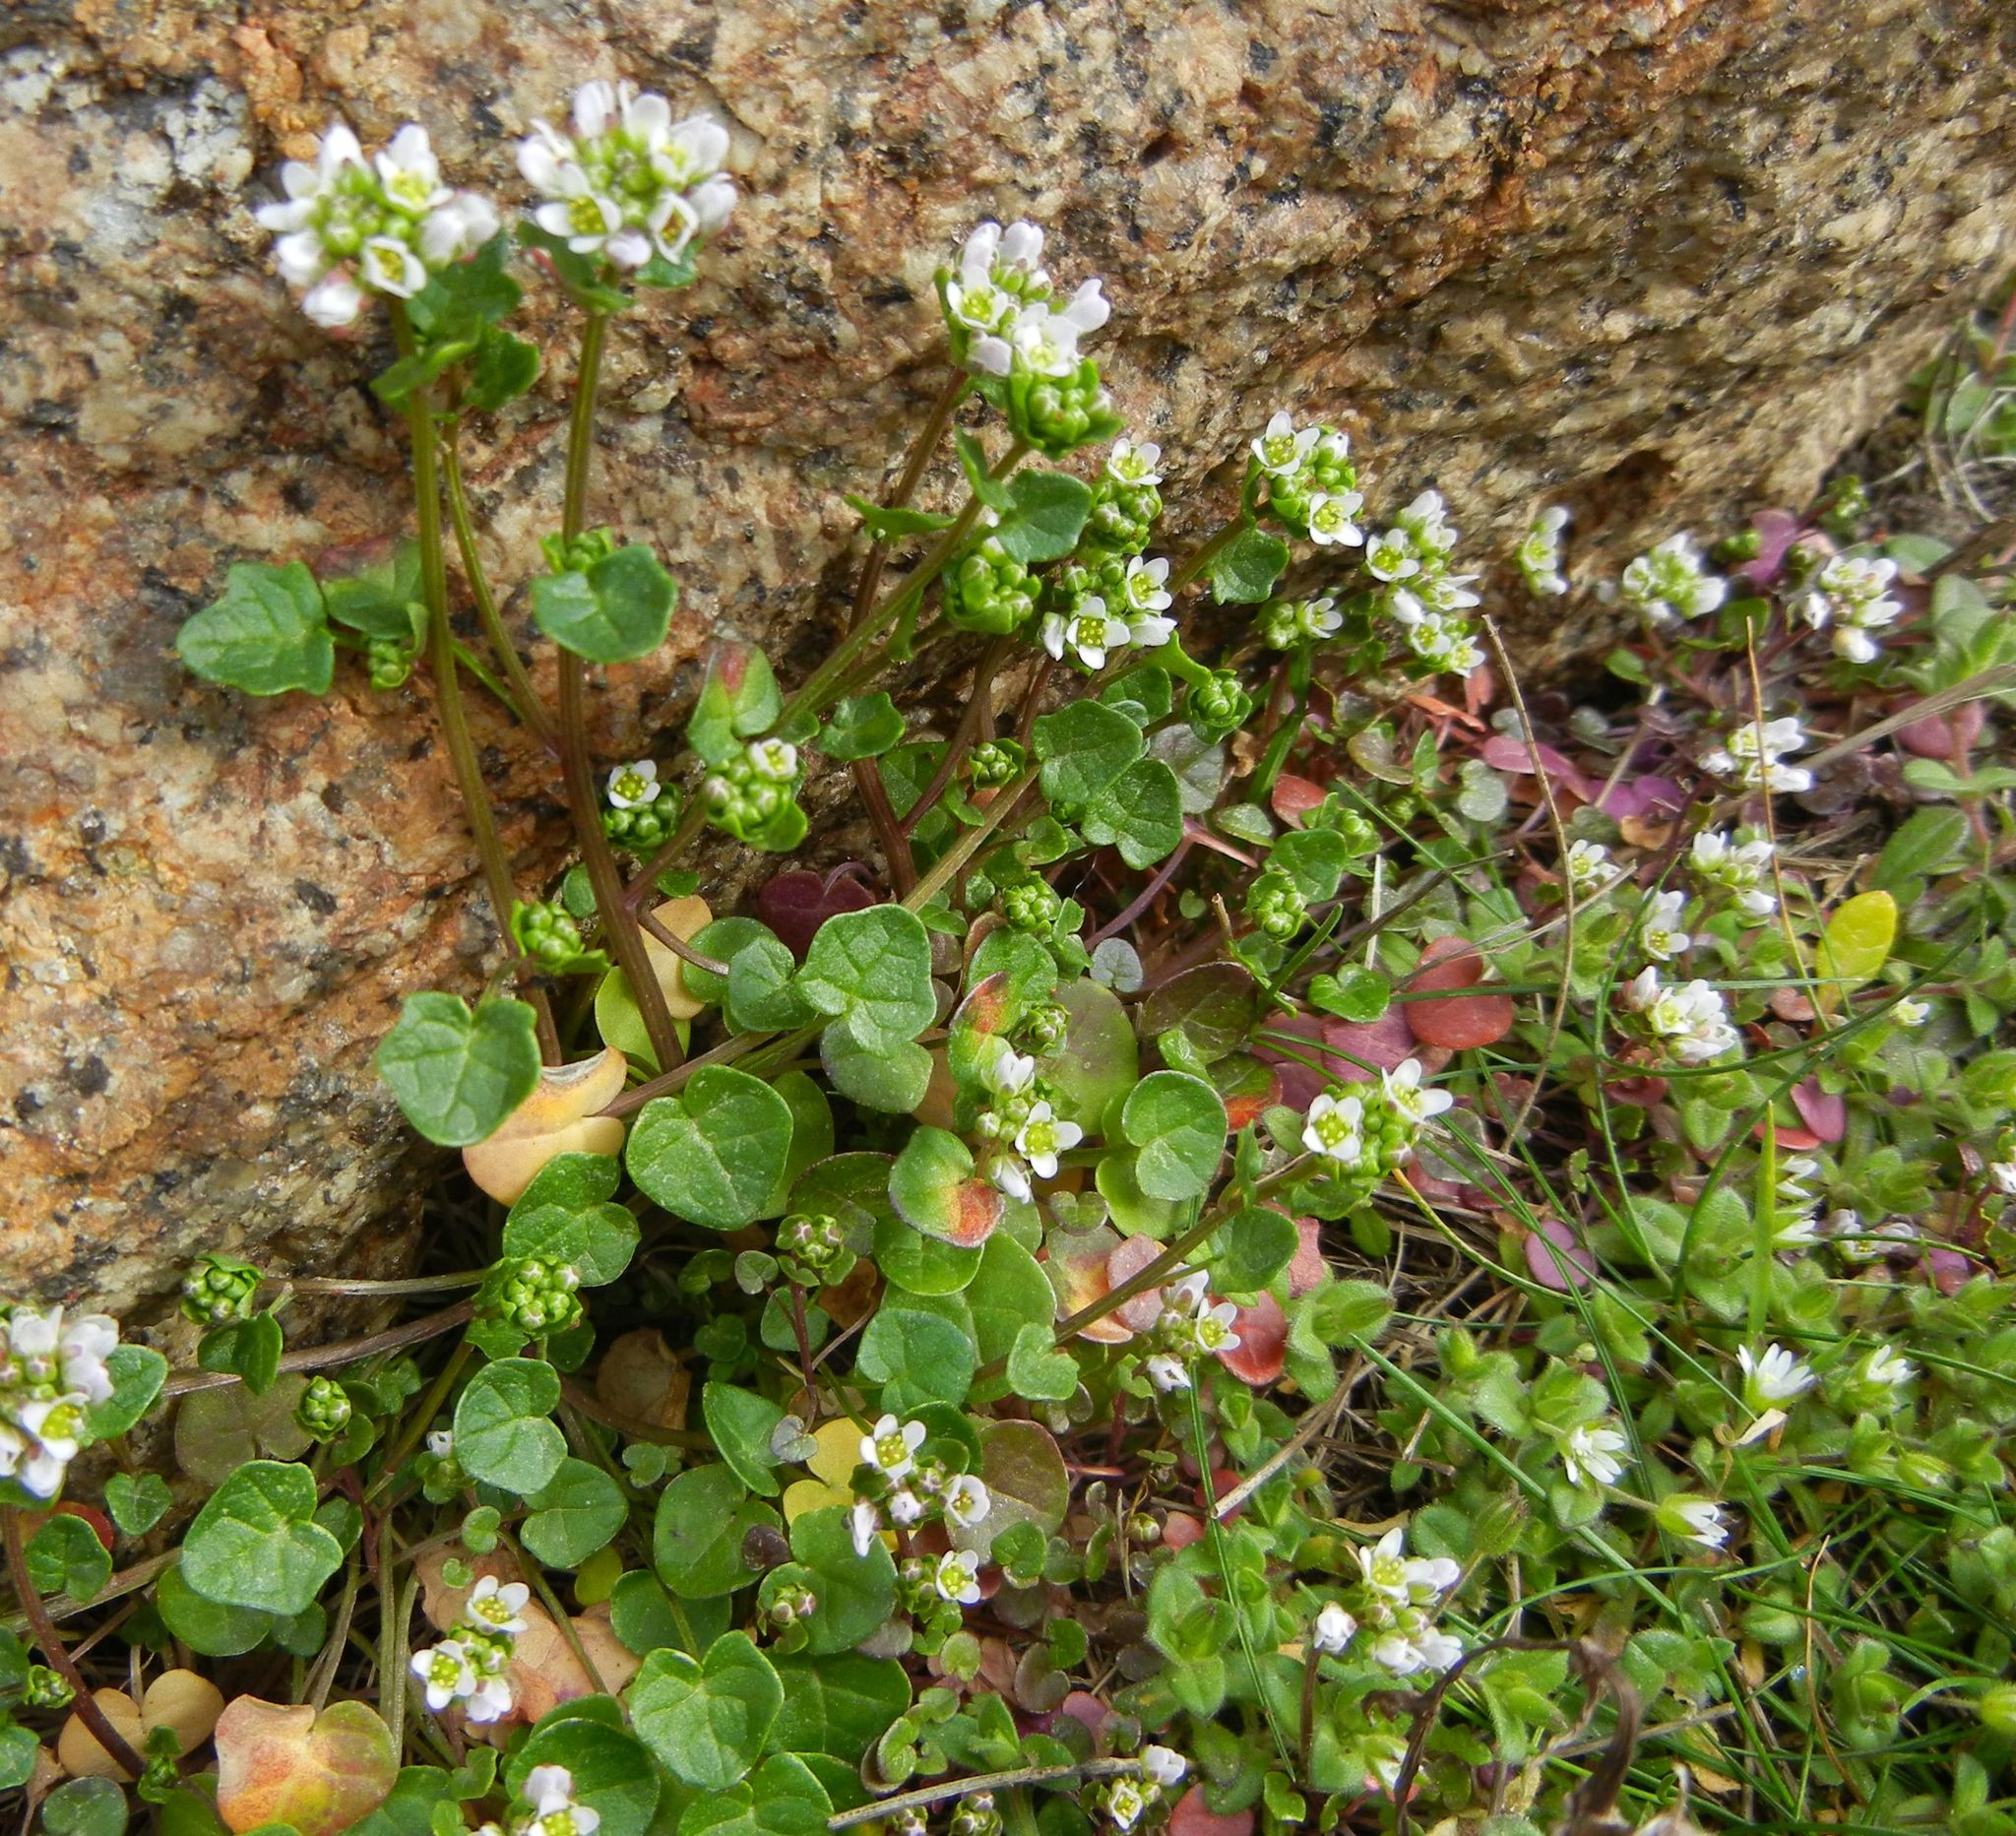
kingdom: Plantae
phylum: Tracheophyta
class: Magnoliopsida
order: Brassicales
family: Brassicaceae
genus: Cochlearia
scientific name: Cochlearia danica
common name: Early scurvygrass
